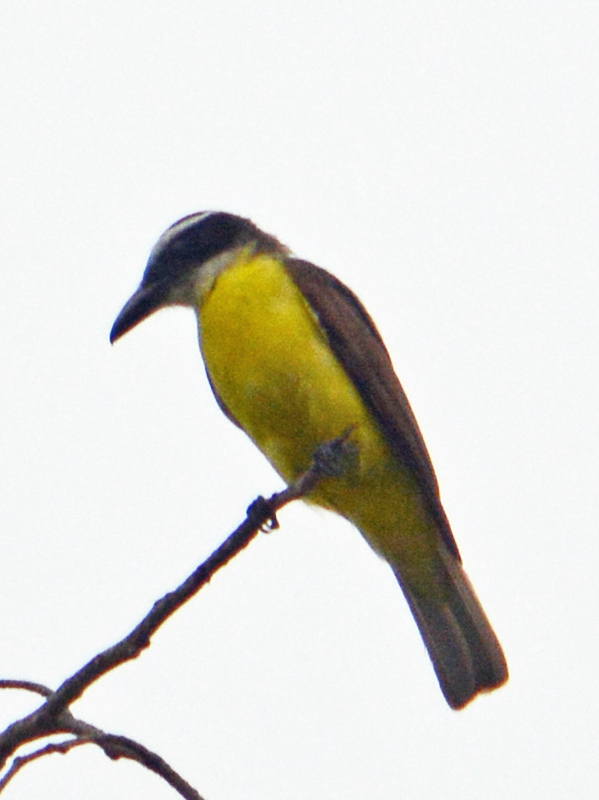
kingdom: Animalia
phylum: Chordata
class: Aves
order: Passeriformes
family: Tyrannidae
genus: Megarynchus
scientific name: Megarynchus pitangua
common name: Boat-billed flycatcher
